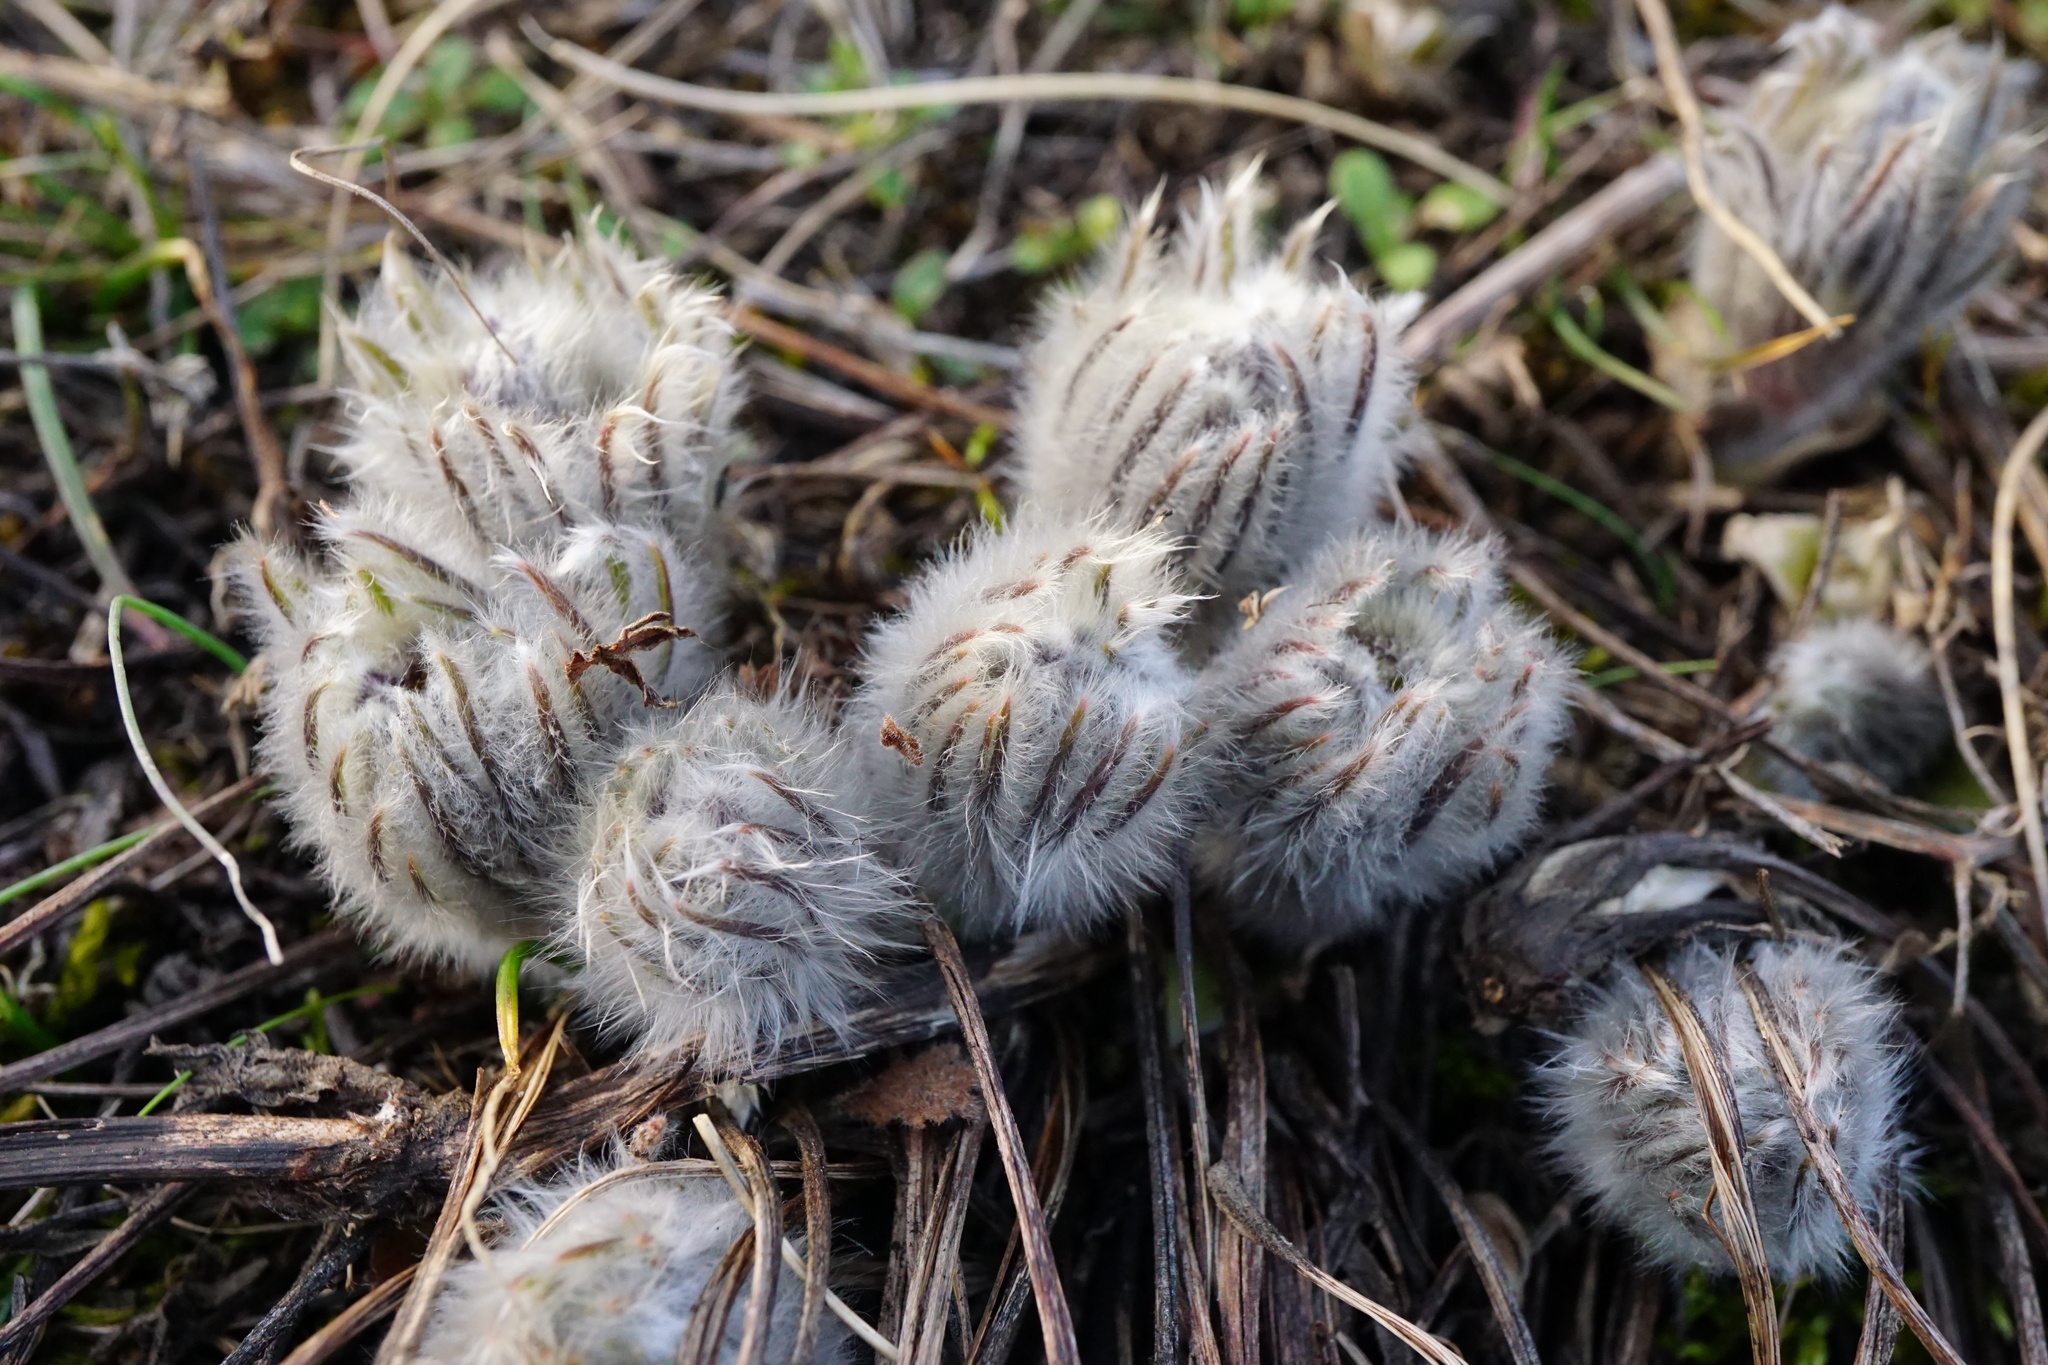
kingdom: Plantae
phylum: Tracheophyta
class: Magnoliopsida
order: Ranunculales
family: Ranunculaceae
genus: Pulsatilla
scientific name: Pulsatilla grandis
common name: Greater pasque flower
